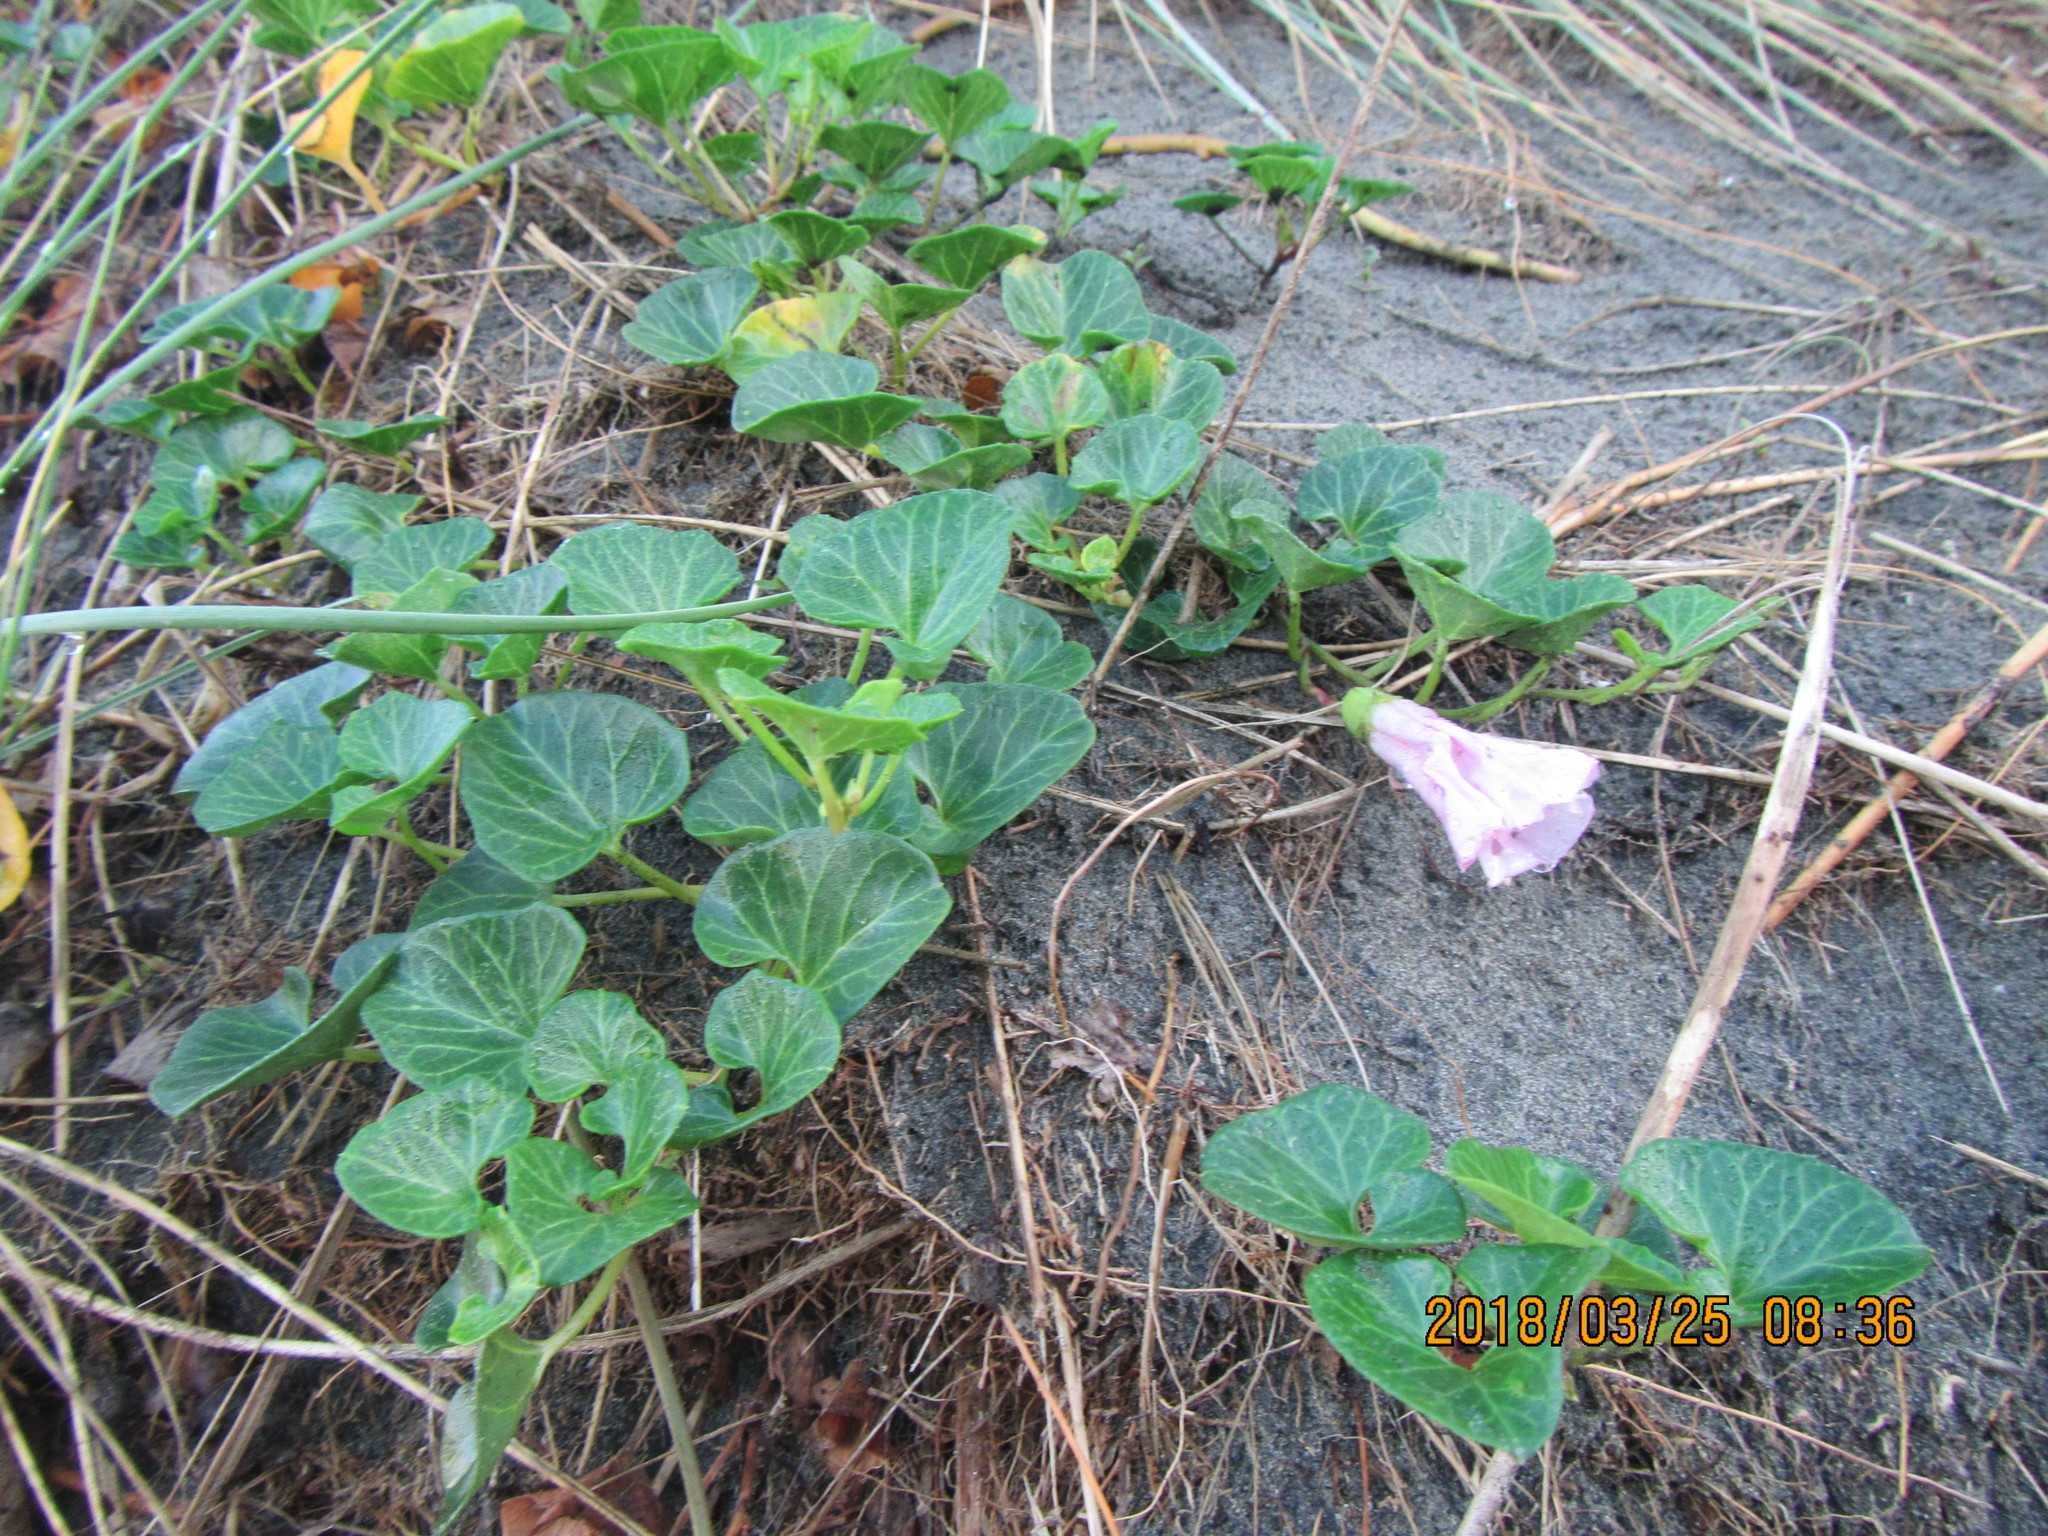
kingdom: Plantae
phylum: Tracheophyta
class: Magnoliopsida
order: Solanales
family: Convolvulaceae
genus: Calystegia
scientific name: Calystegia soldanella
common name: Sea bindweed
